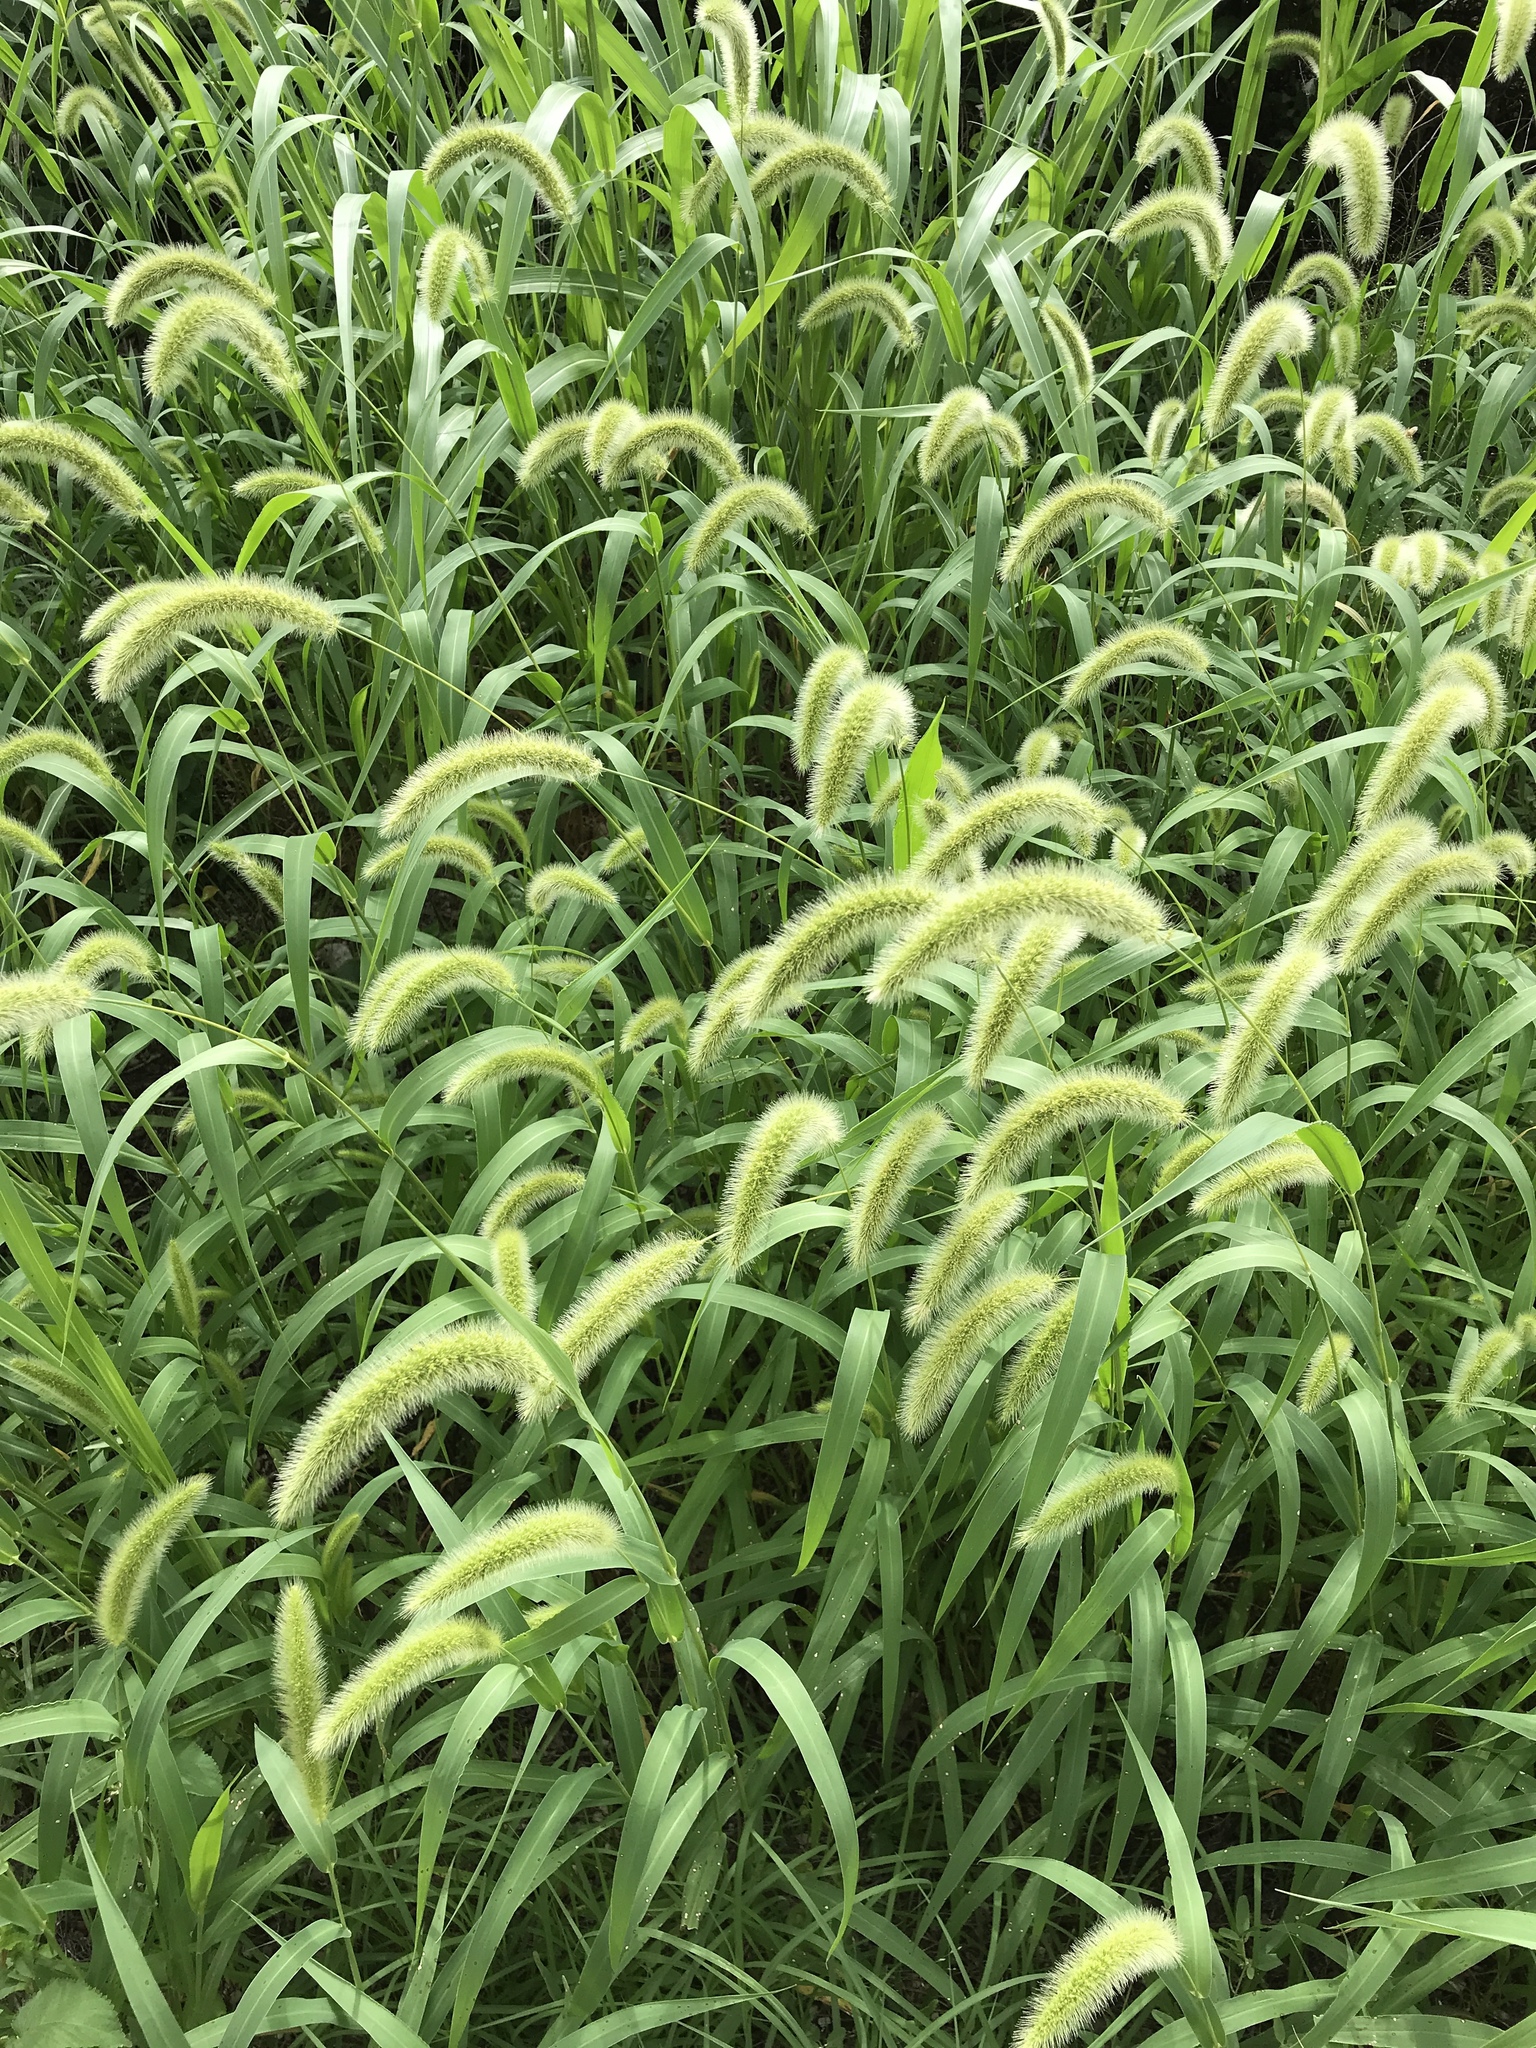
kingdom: Plantae
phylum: Tracheophyta
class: Liliopsida
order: Poales
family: Poaceae
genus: Setaria
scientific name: Setaria italica
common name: Foxtail bristle-grass
